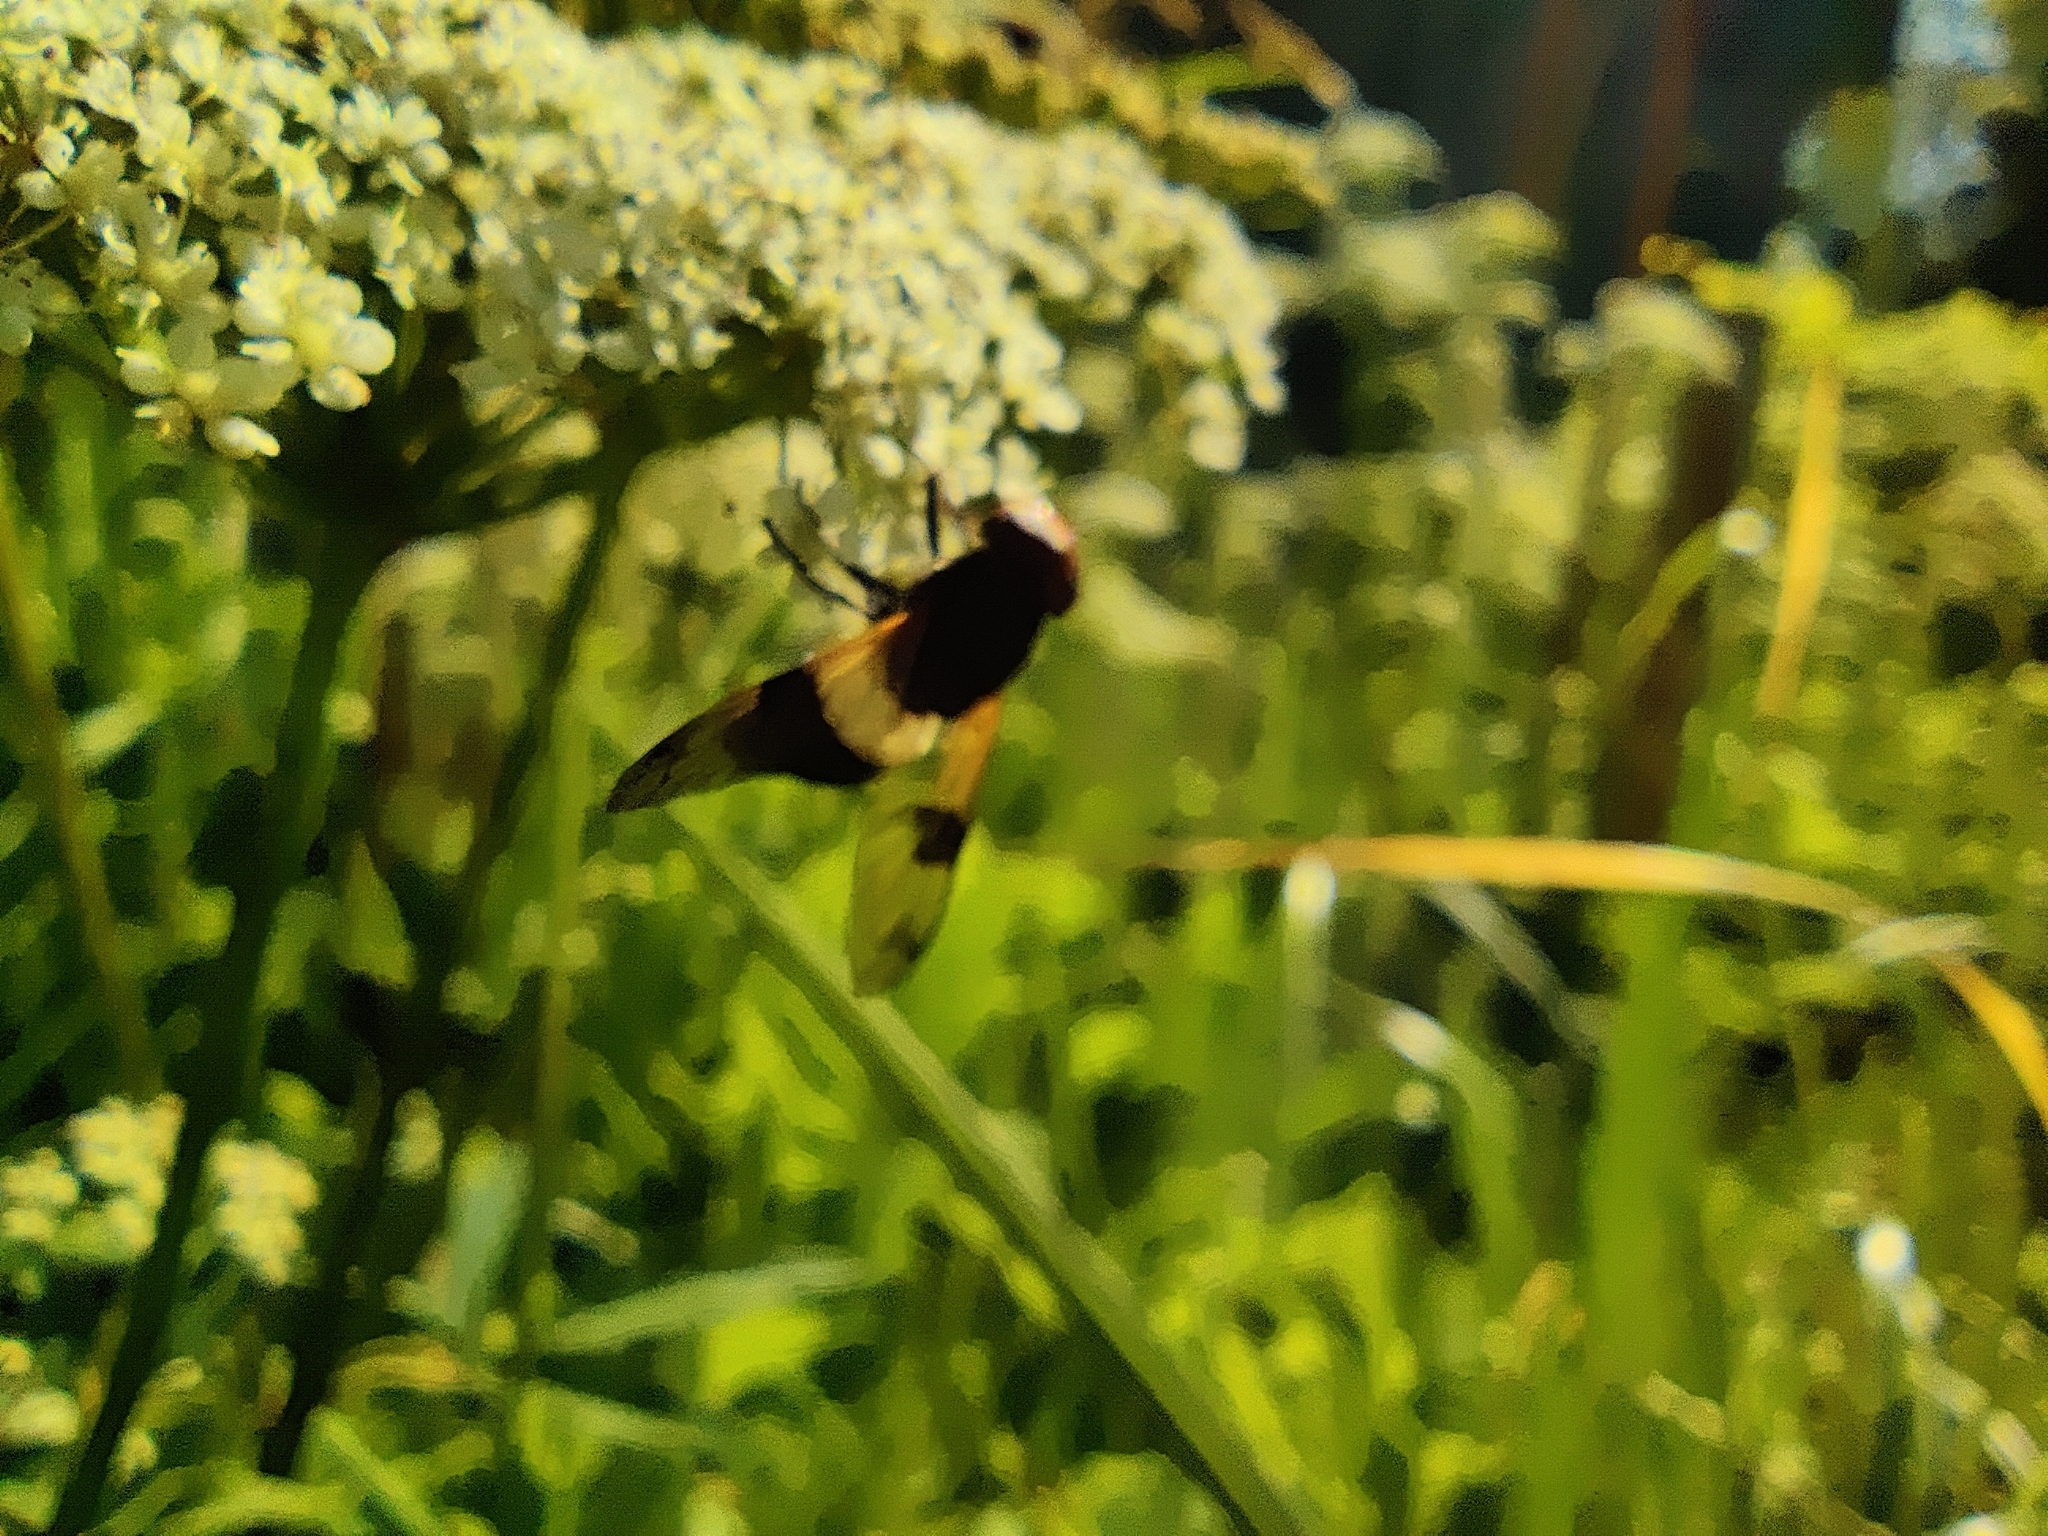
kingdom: Animalia
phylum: Arthropoda
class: Insecta
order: Diptera
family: Syrphidae
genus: Volucella
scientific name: Volucella pellucens
